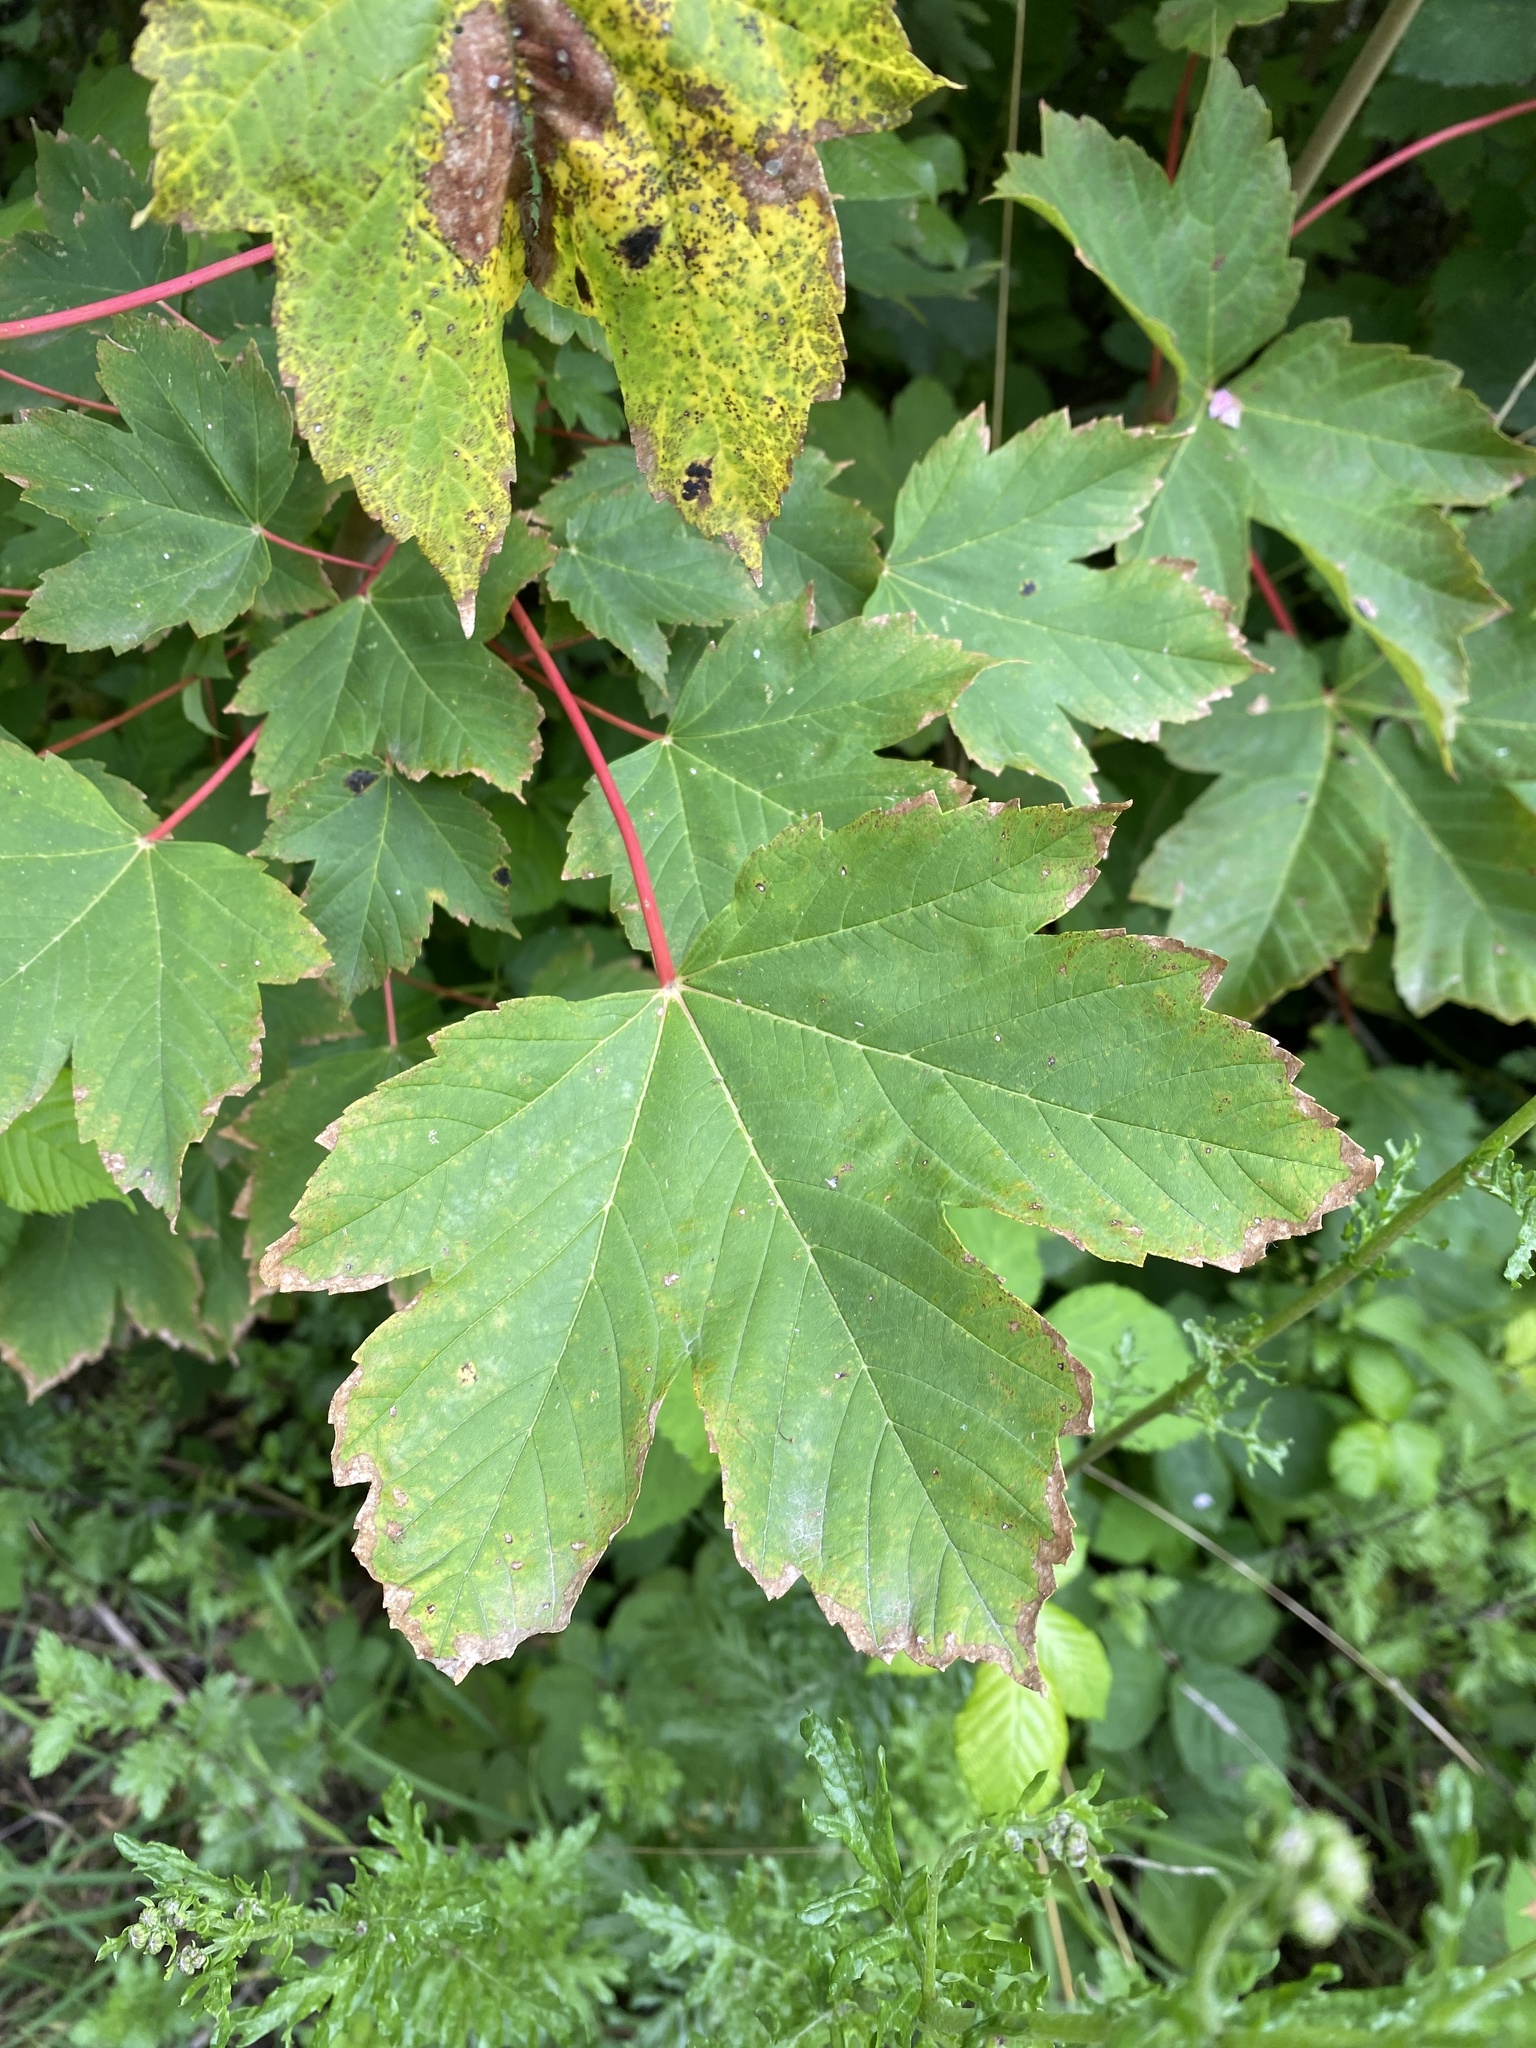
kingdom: Plantae
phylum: Tracheophyta
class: Magnoliopsida
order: Sapindales
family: Sapindaceae
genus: Acer
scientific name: Acer pseudoplatanus
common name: Sycamore
